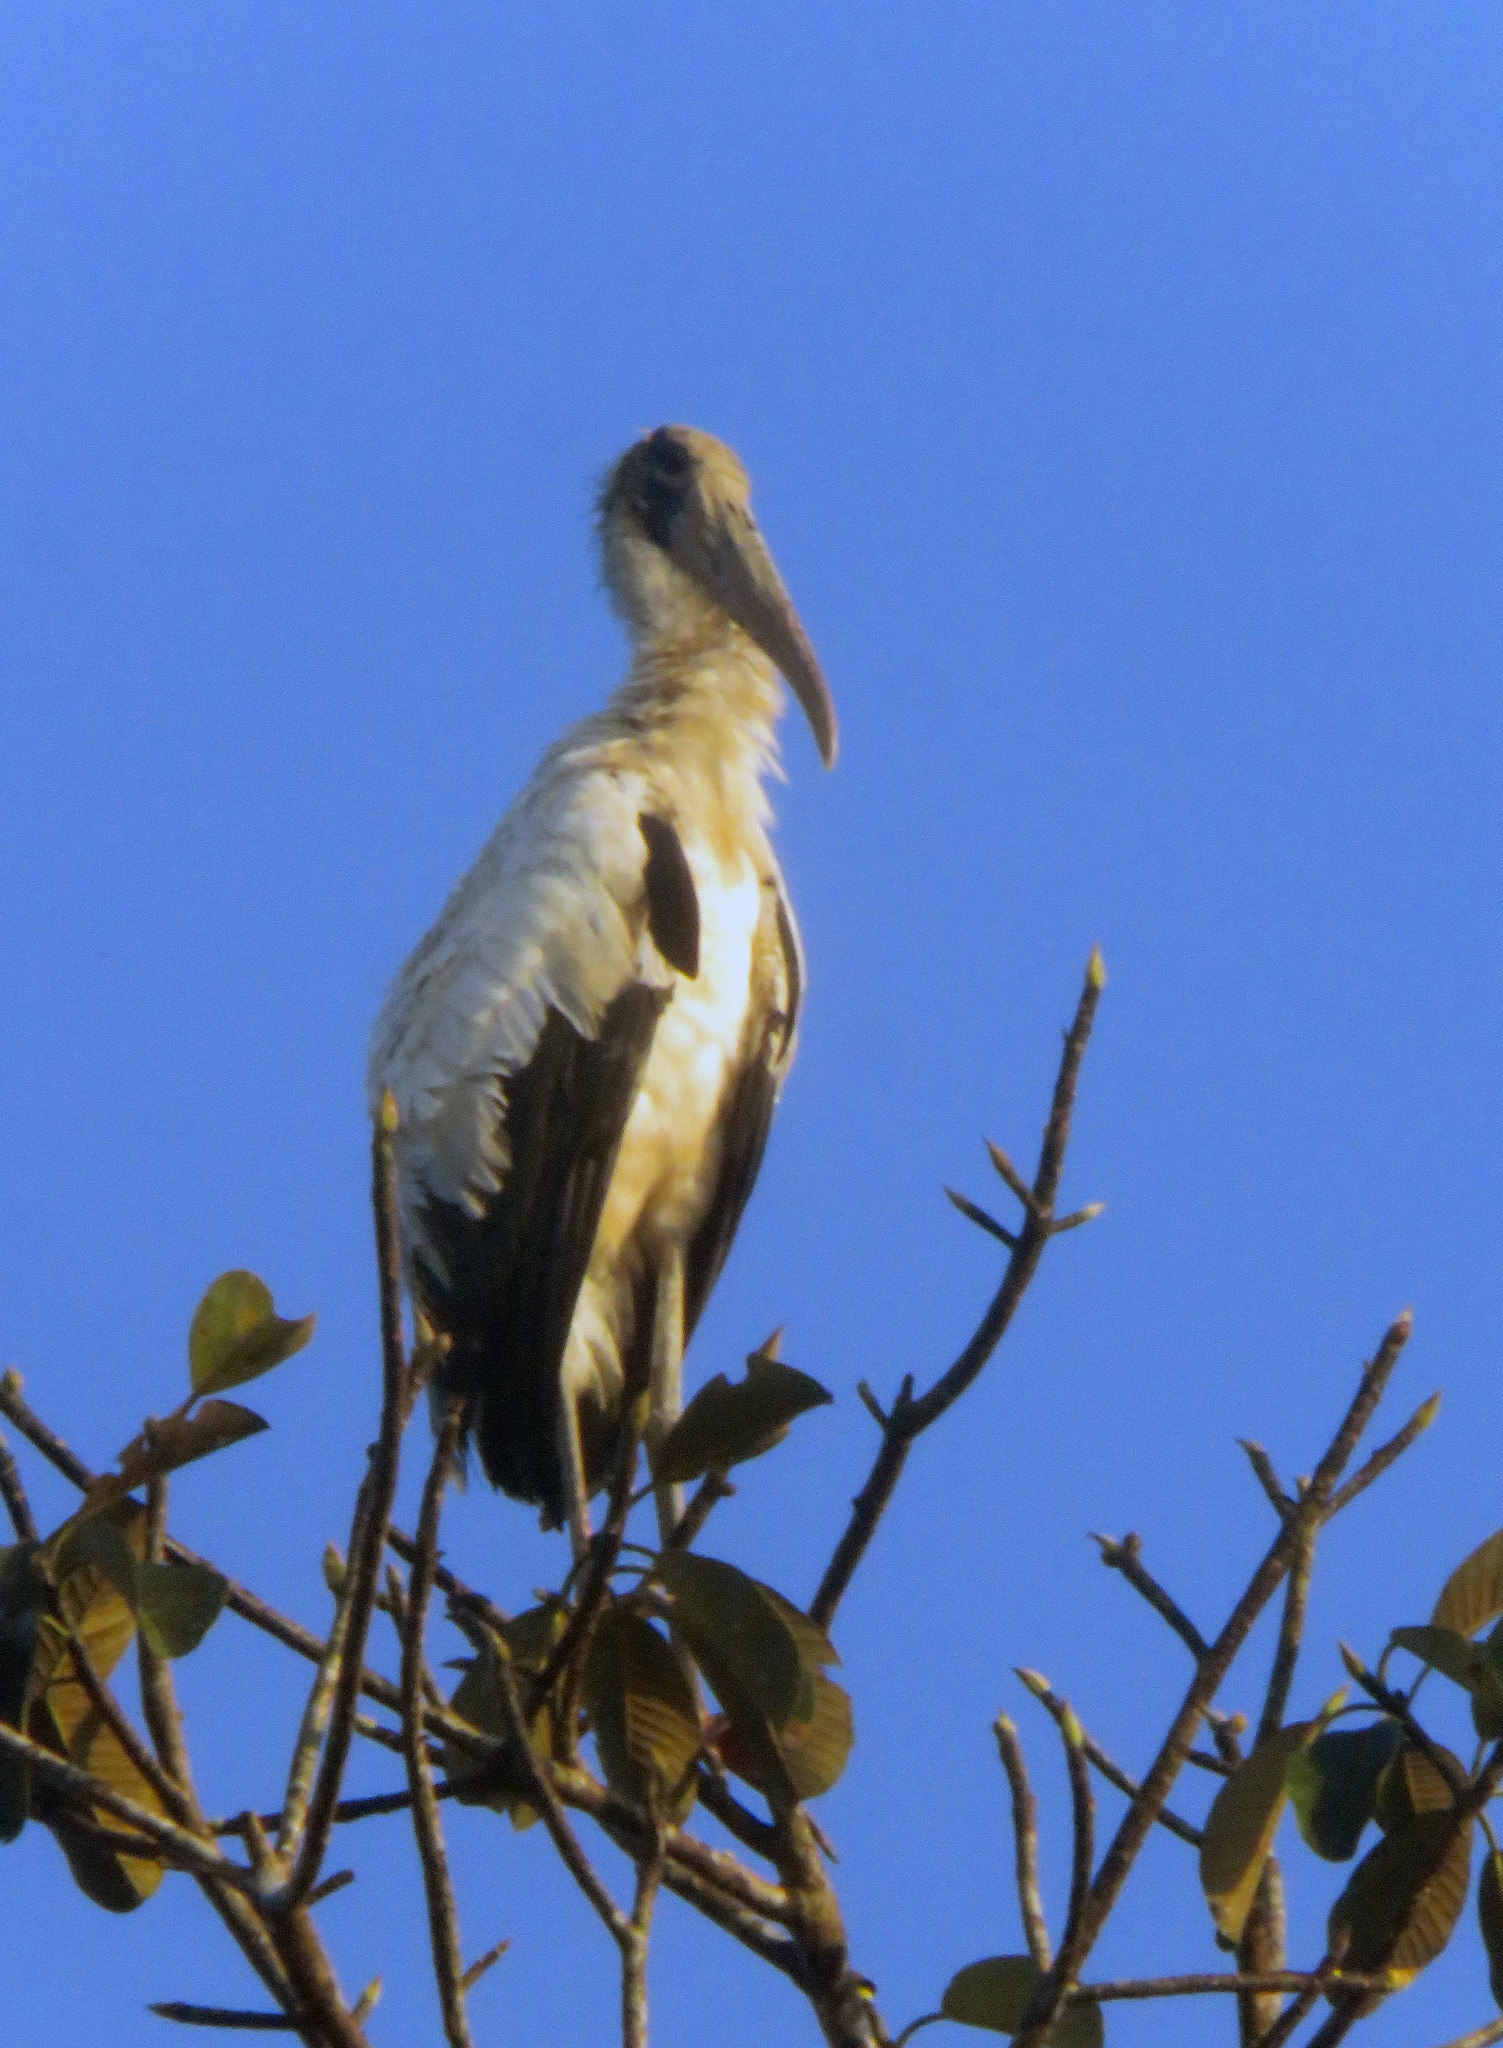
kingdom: Animalia
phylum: Chordata
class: Aves
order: Ciconiiformes
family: Ciconiidae
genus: Mycteria
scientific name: Mycteria americana
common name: Wood stork
